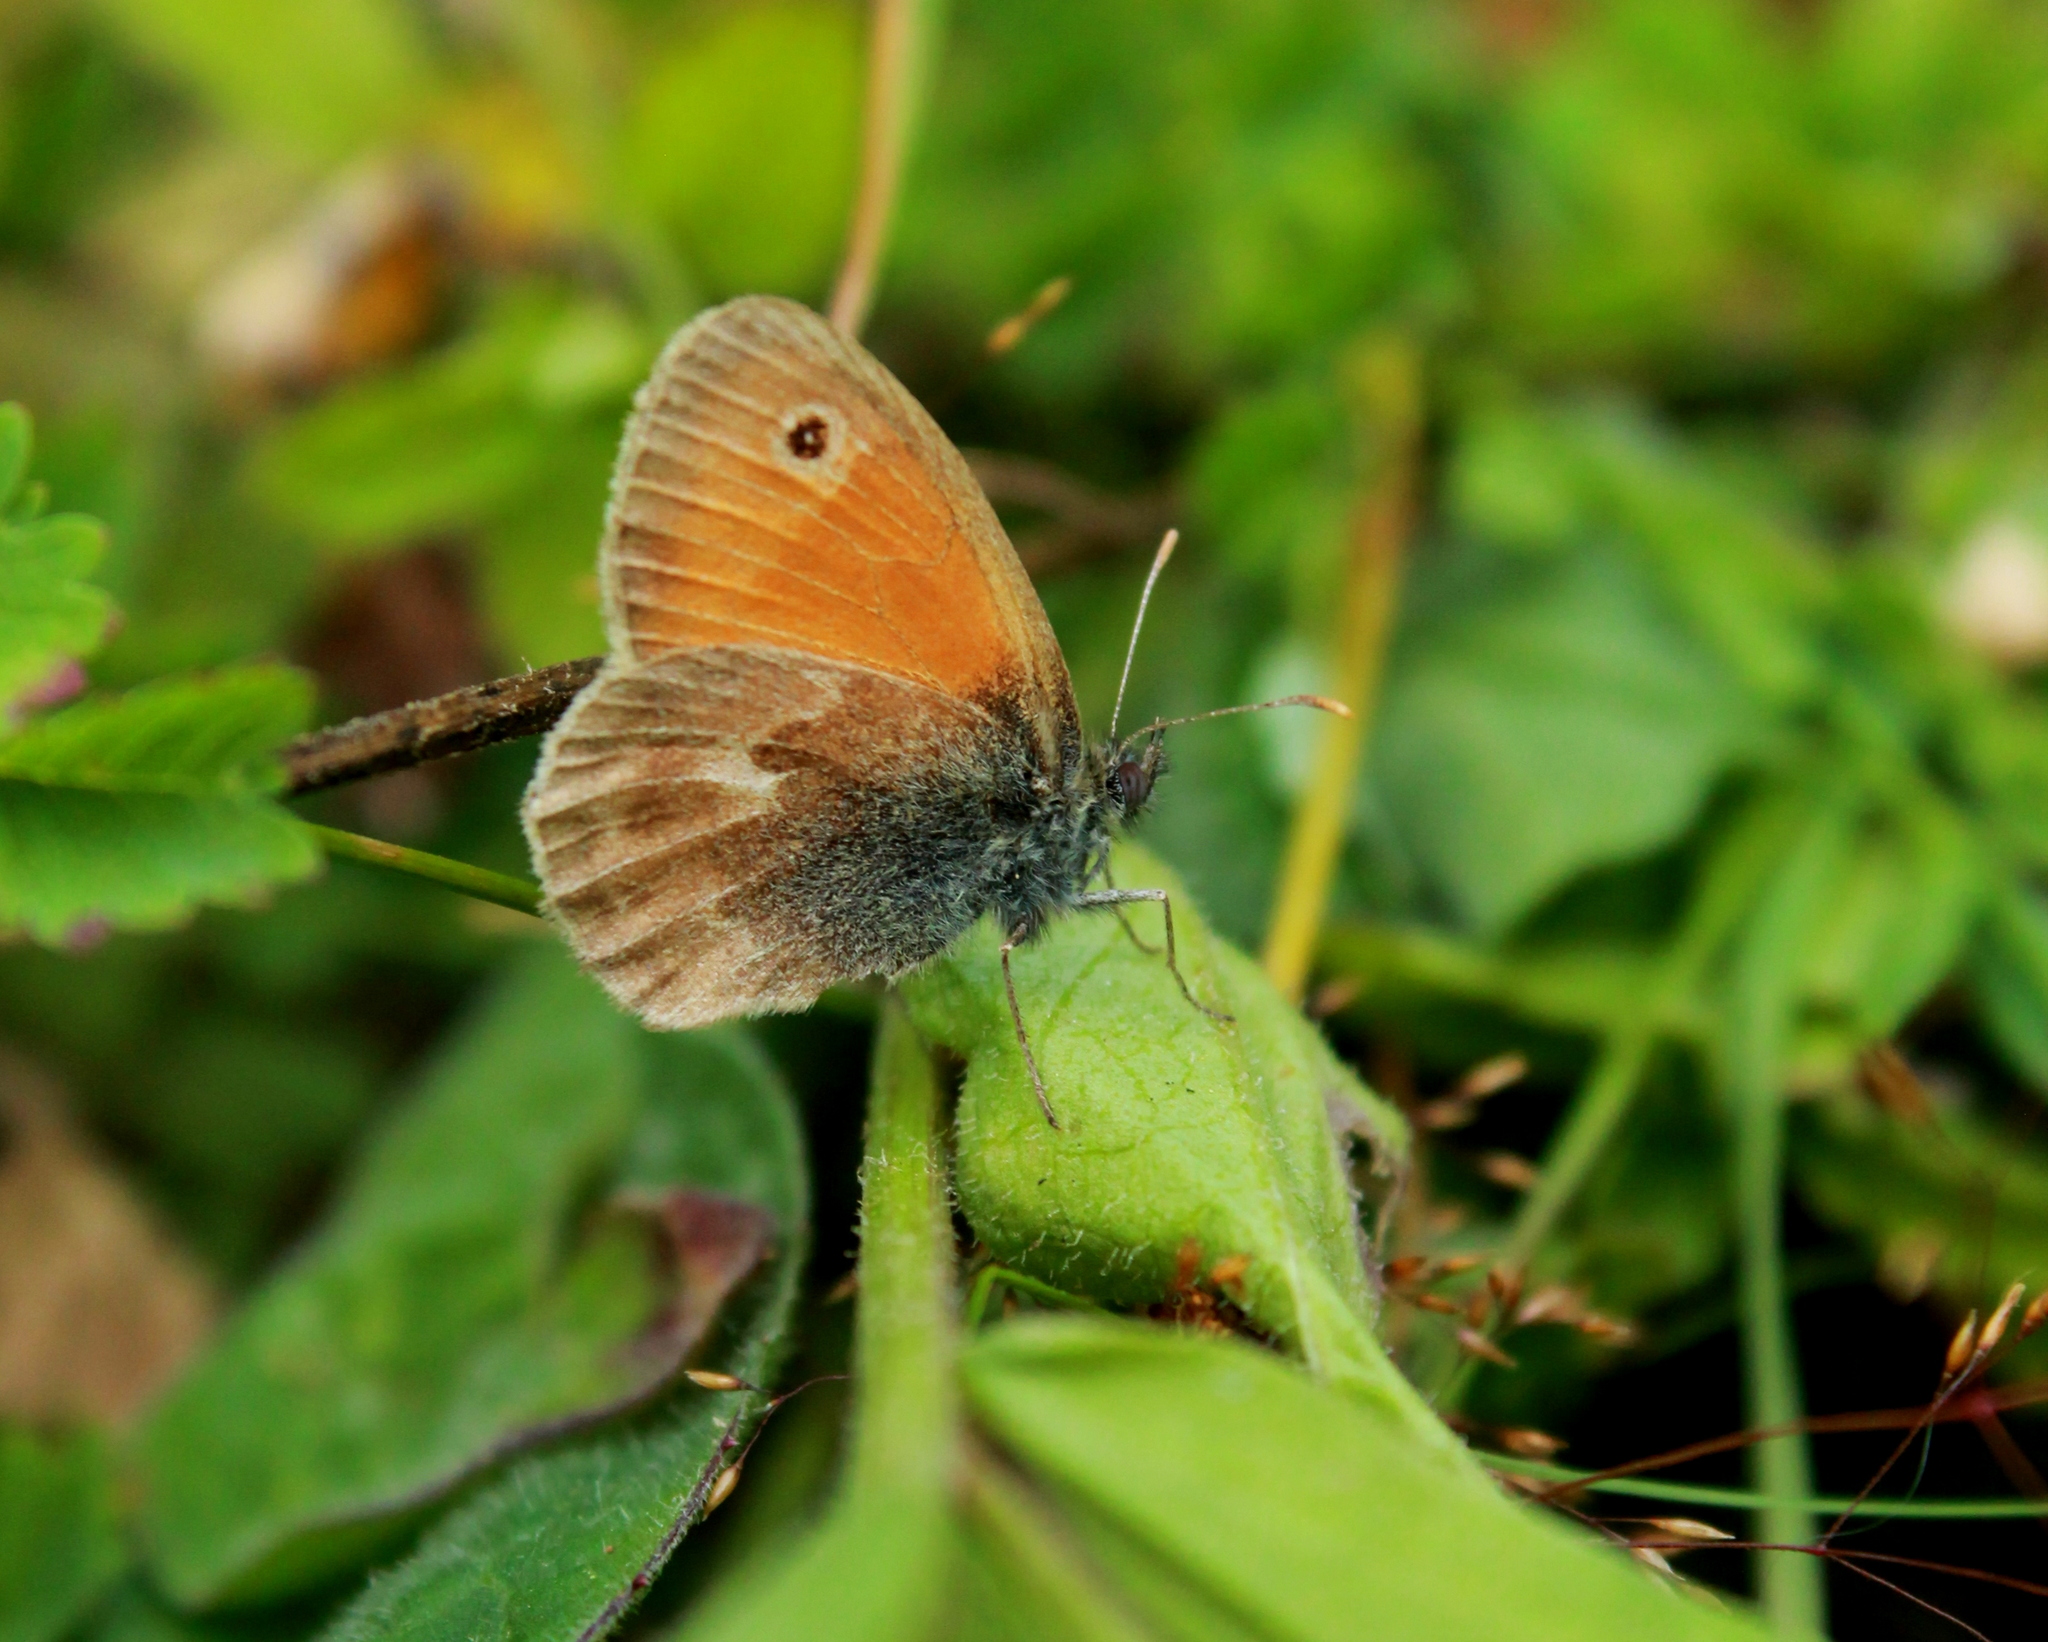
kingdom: Animalia
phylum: Arthropoda
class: Insecta
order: Lepidoptera
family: Nymphalidae
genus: Coenonympha
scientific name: Coenonympha pamphilus
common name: Small heath
